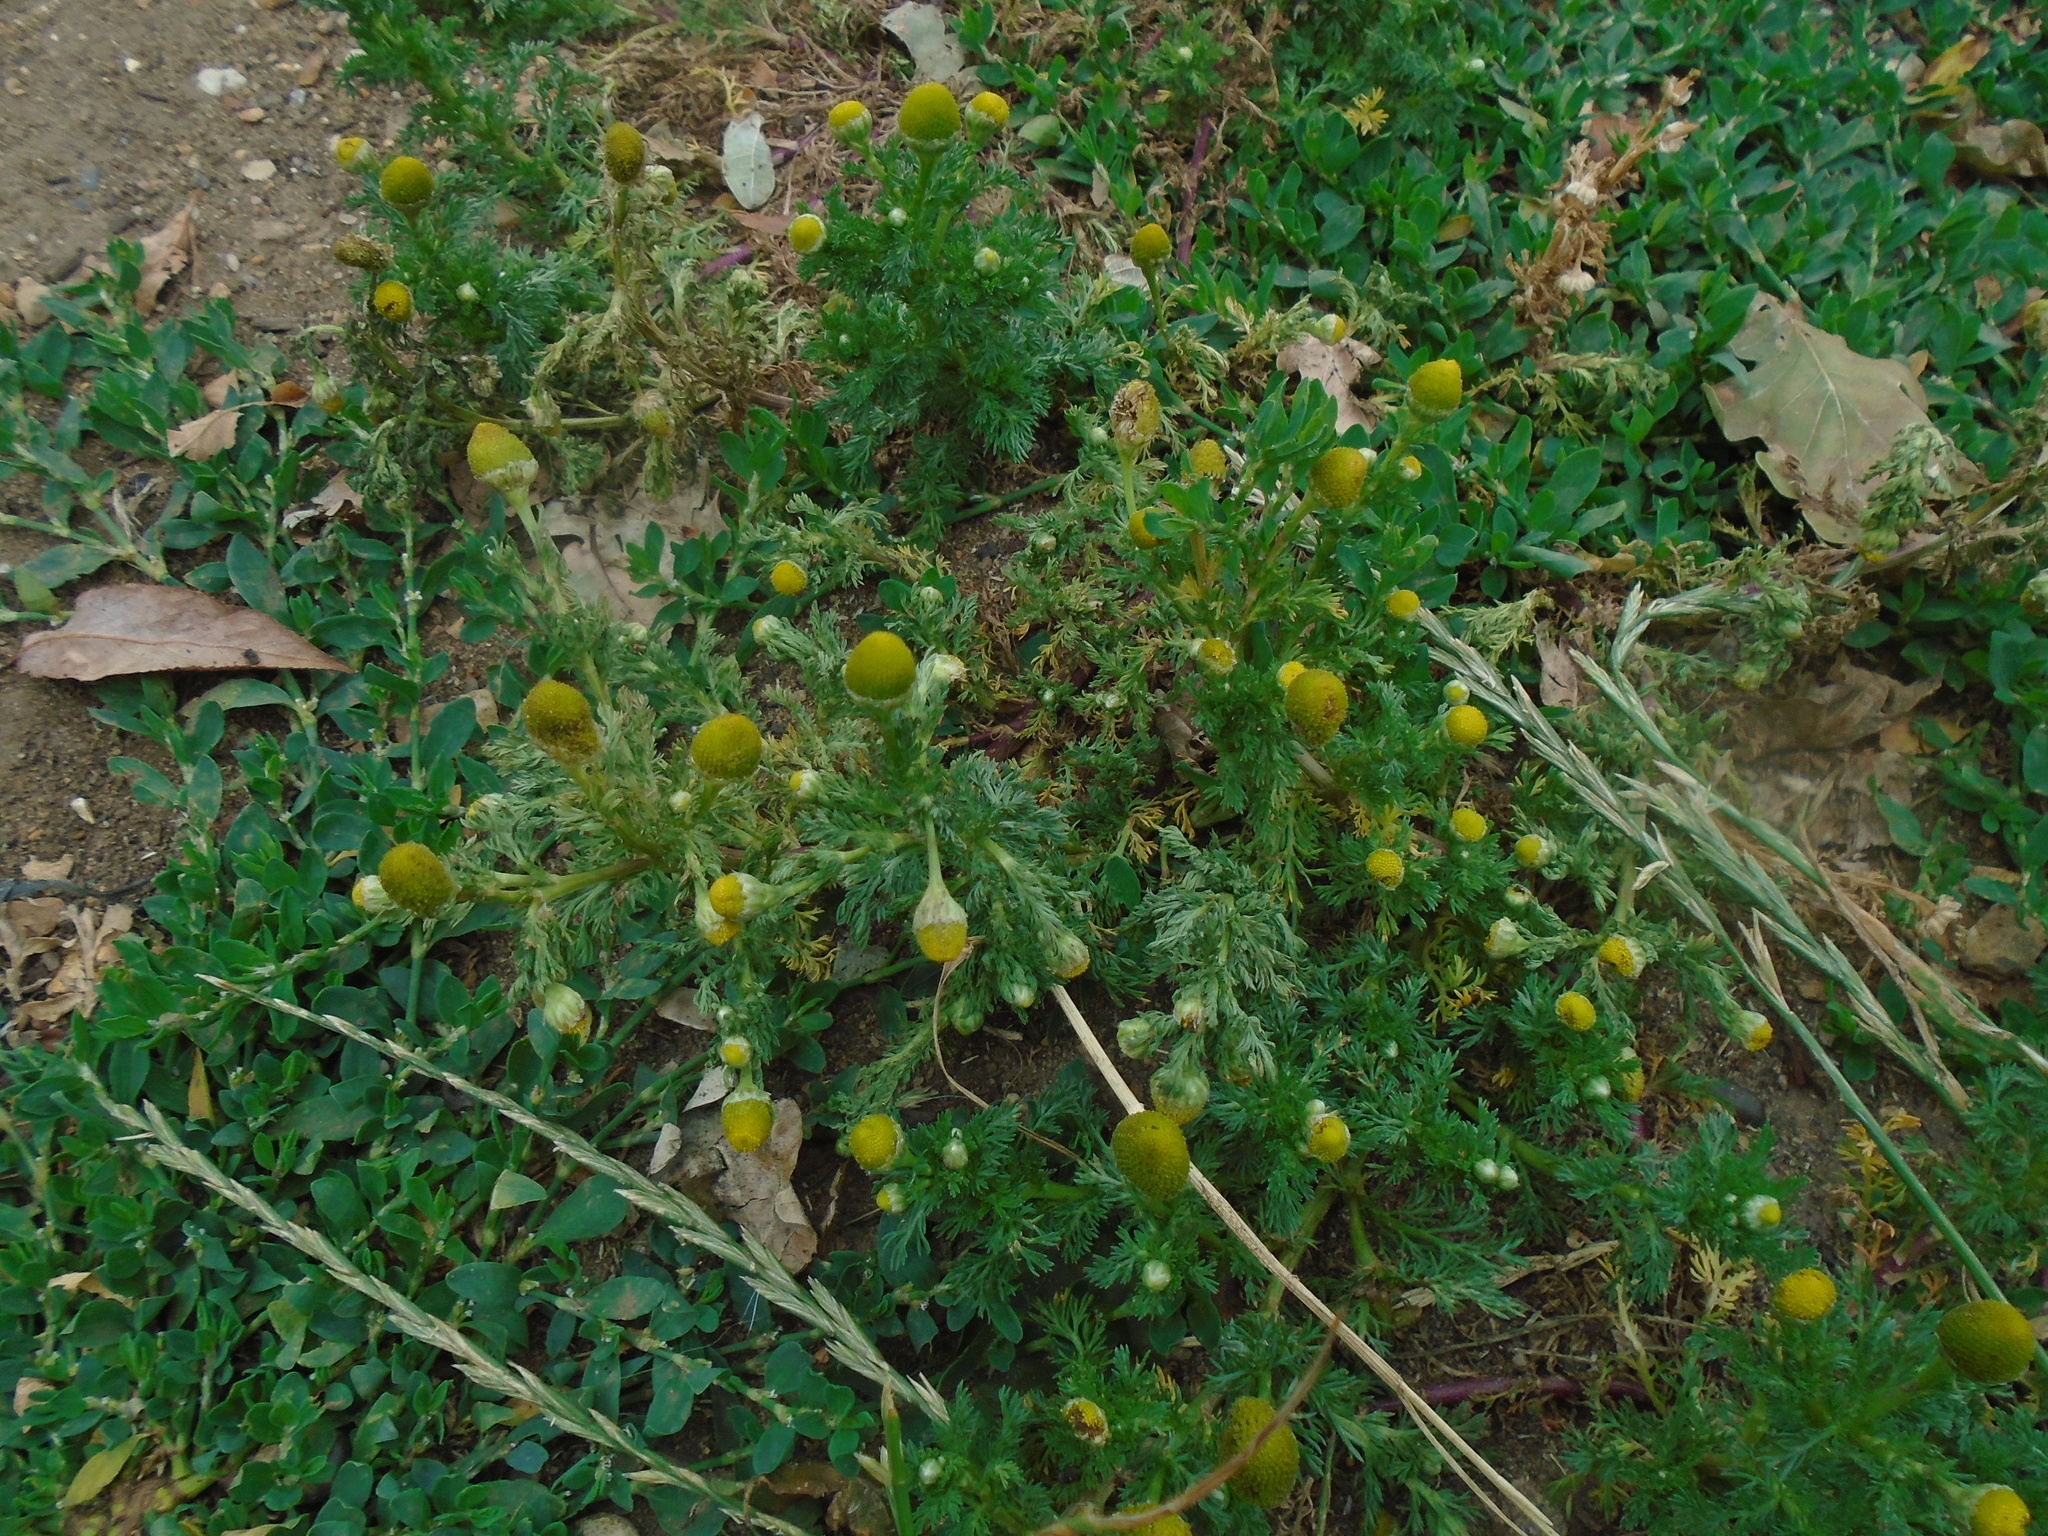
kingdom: Plantae
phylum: Tracheophyta
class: Magnoliopsida
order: Asterales
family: Asteraceae
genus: Matricaria
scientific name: Matricaria discoidea
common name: Disc mayweed
